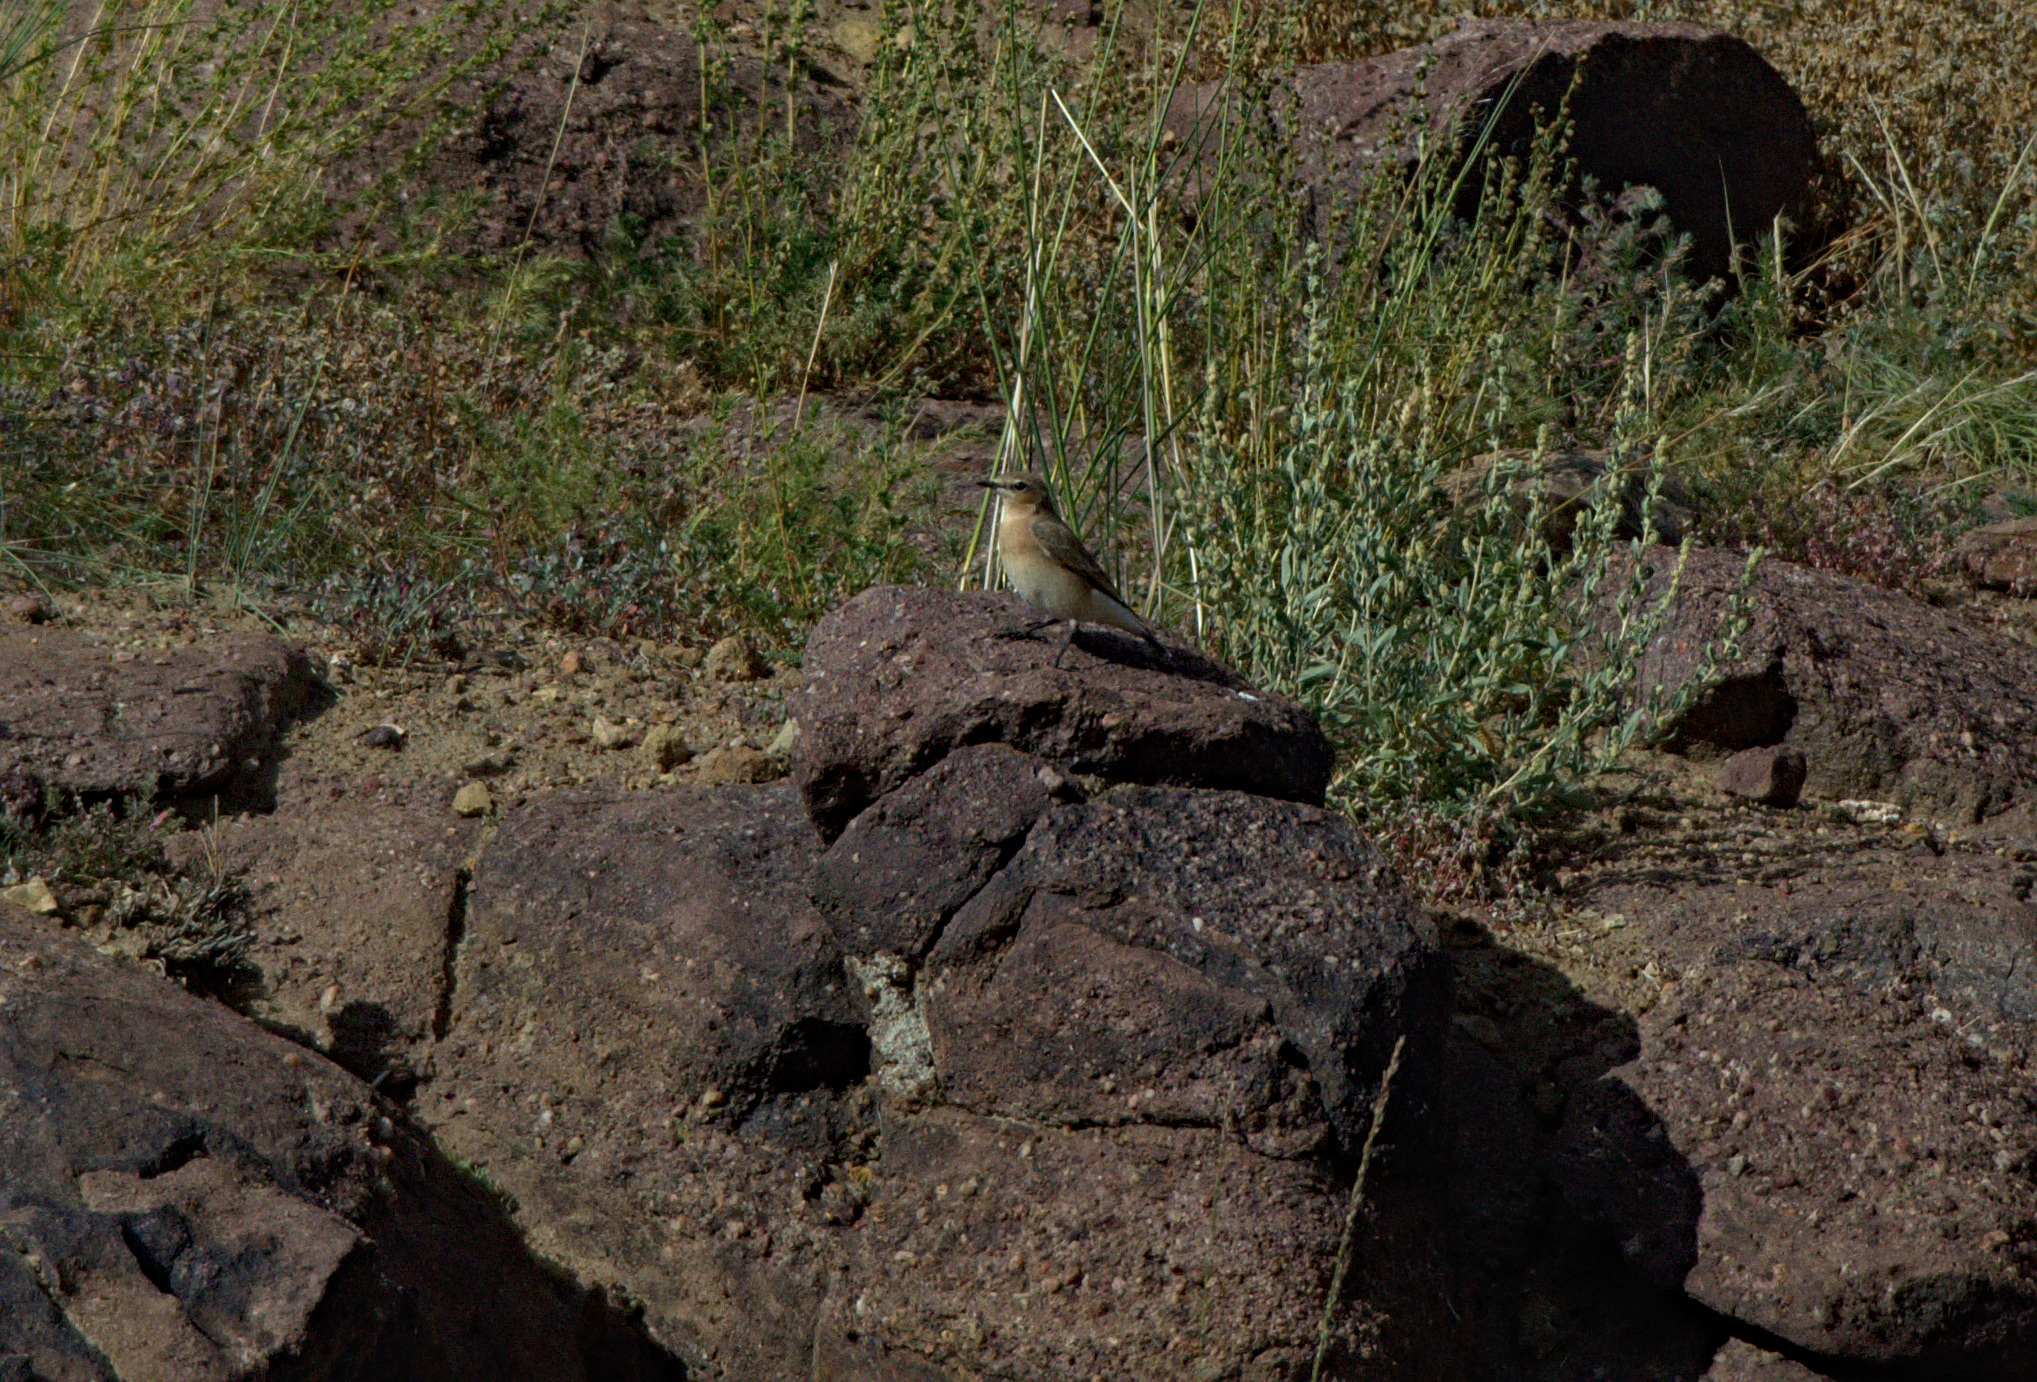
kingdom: Animalia
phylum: Chordata
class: Aves
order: Passeriformes
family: Muscicapidae
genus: Oenanthe
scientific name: Oenanthe isabellina
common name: Isabelline wheatear
